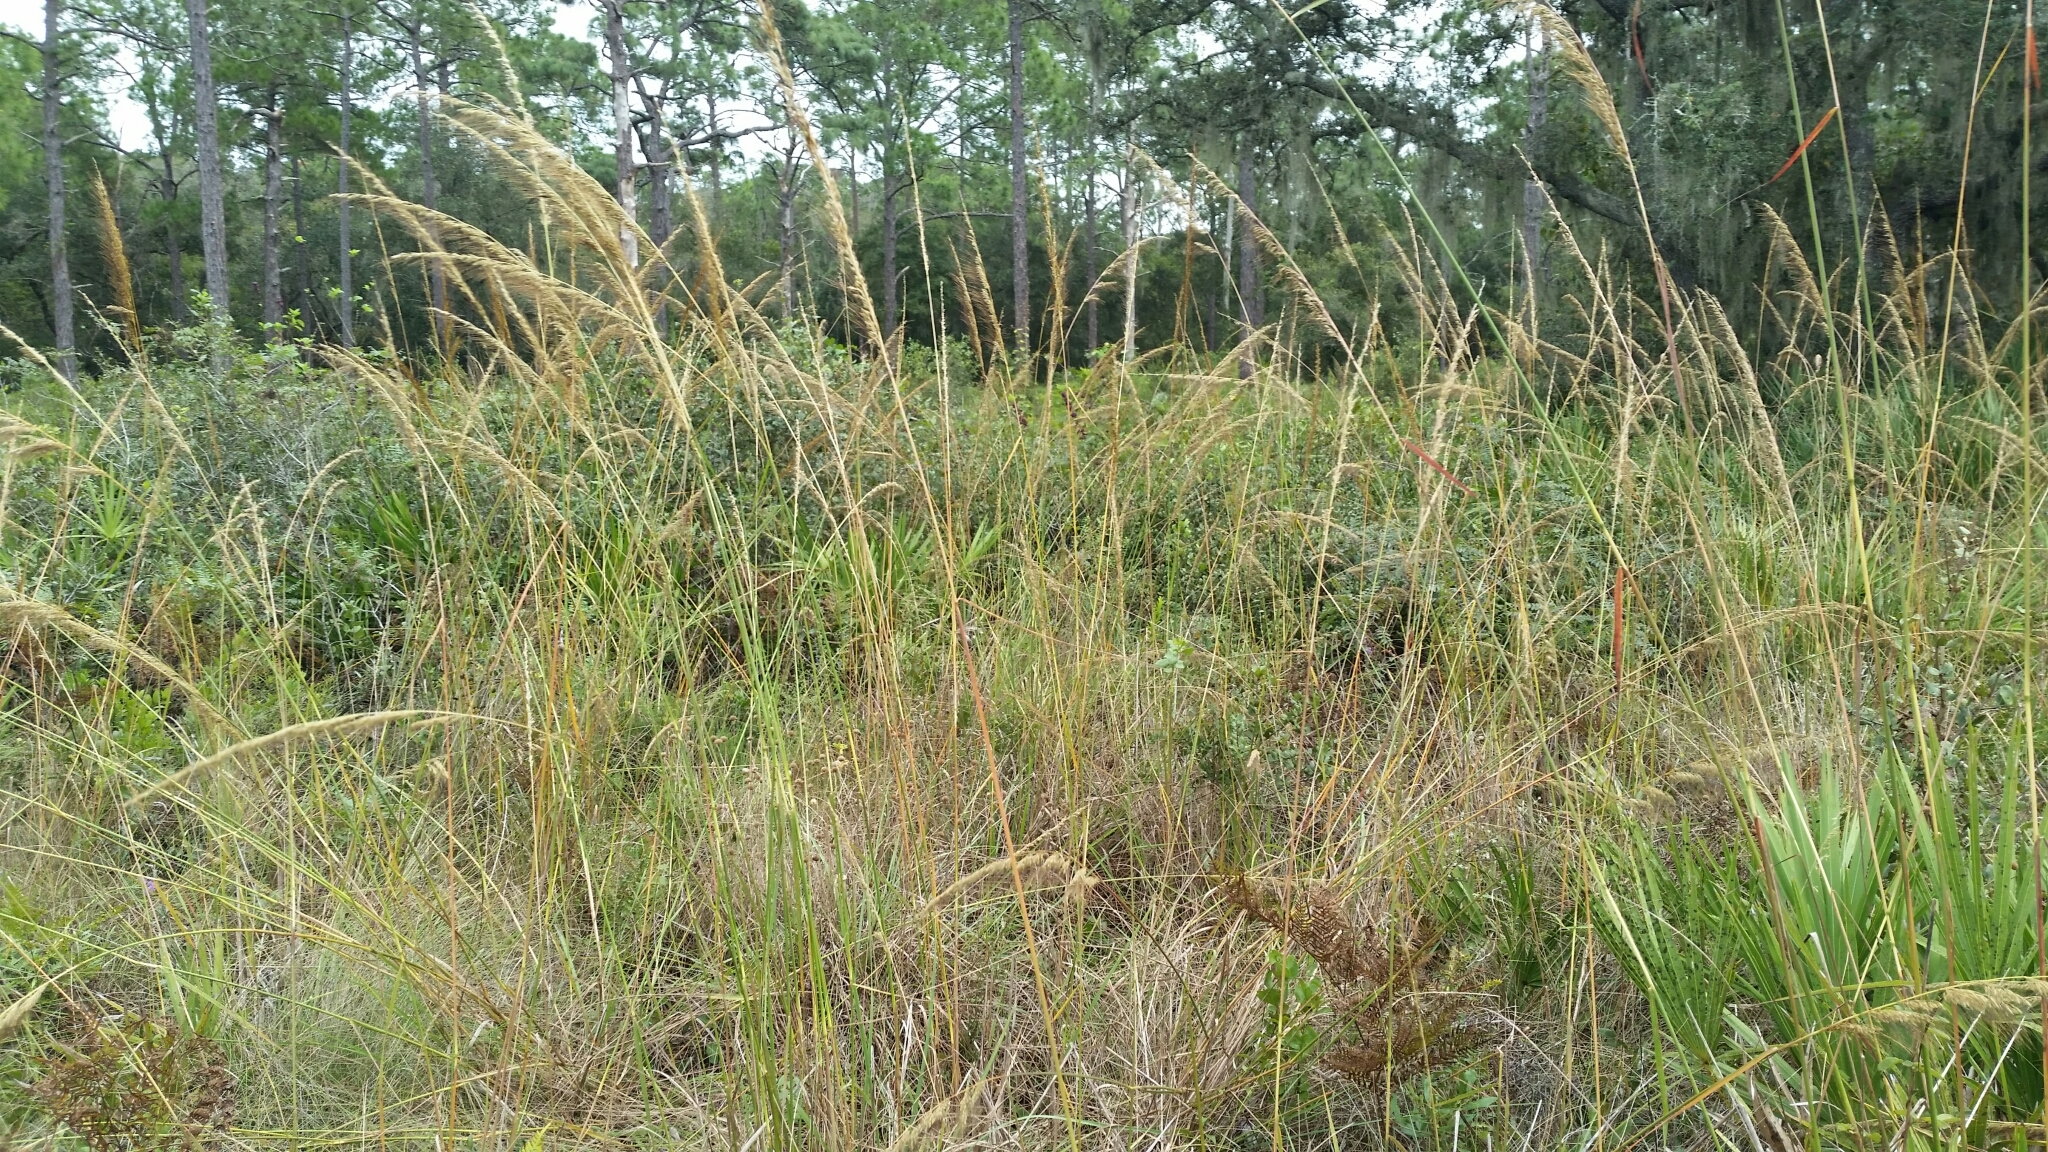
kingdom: Plantae
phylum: Tracheophyta
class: Liliopsida
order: Poales
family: Poaceae
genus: Sorghastrum
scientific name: Sorghastrum secundum
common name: Lopsided indian grass
